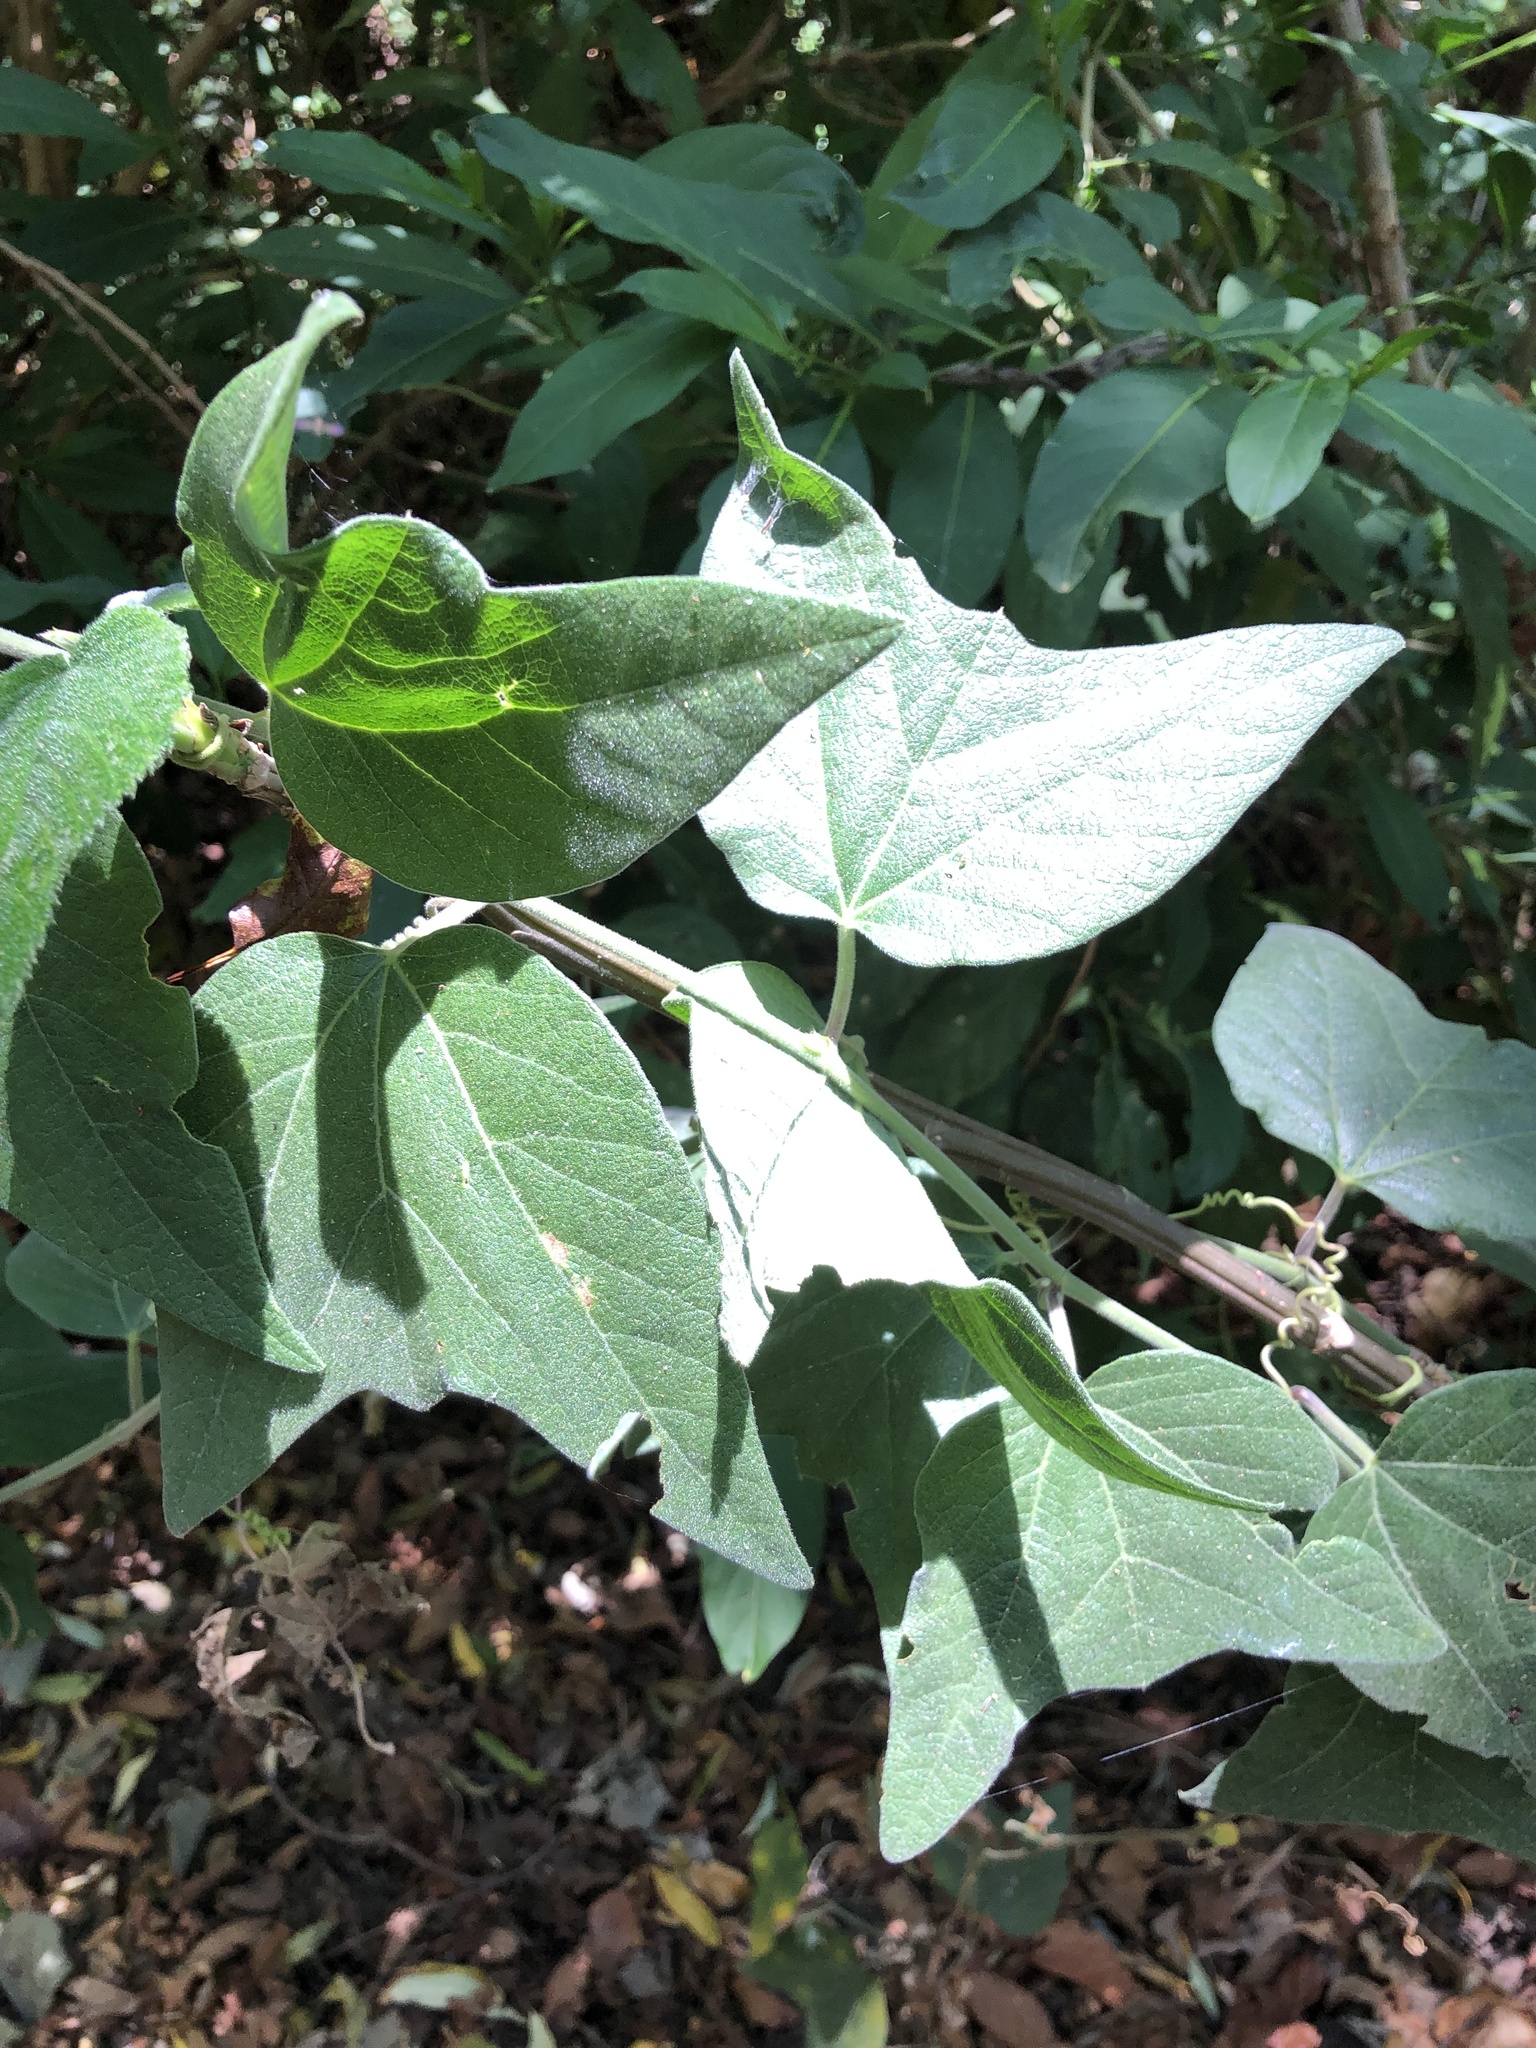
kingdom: Plantae
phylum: Tracheophyta
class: Magnoliopsida
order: Malpighiales
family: Passifloraceae
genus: Passiflora
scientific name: Passiflora sexflora
